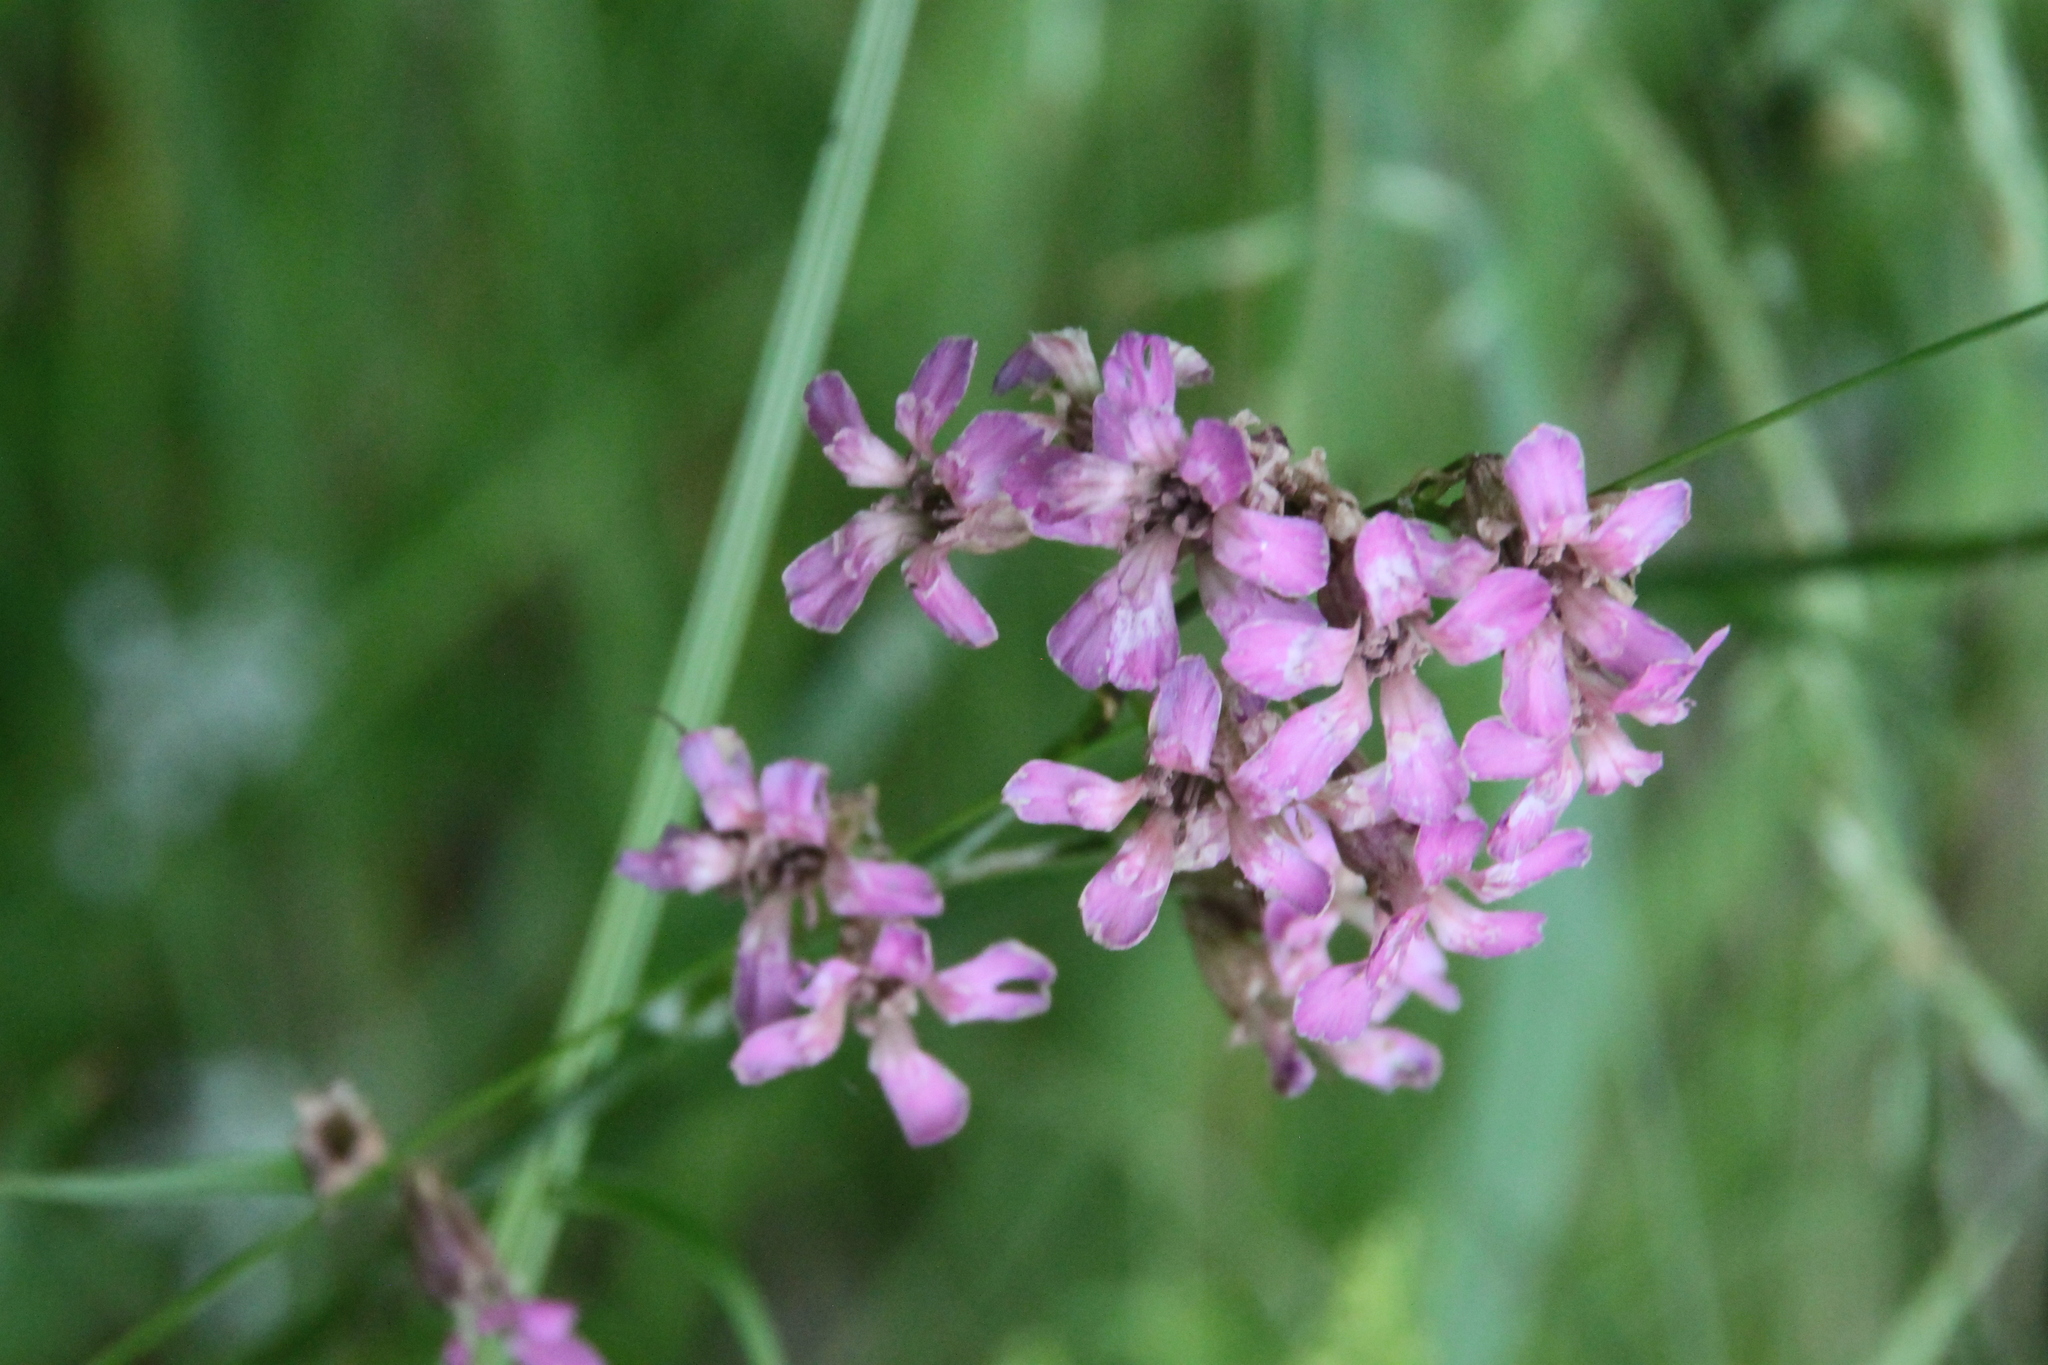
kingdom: Plantae
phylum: Tracheophyta
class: Magnoliopsida
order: Caryophyllales
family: Caryophyllaceae
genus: Viscaria
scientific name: Viscaria vulgaris
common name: Clammy campion
